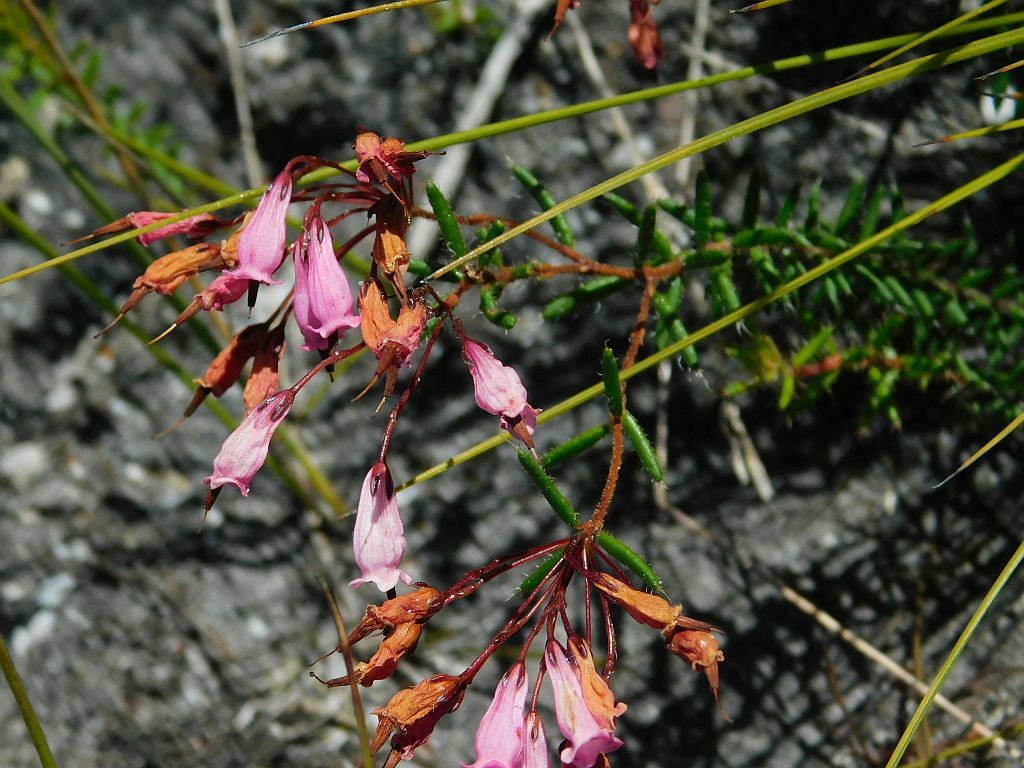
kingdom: Plantae
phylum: Tracheophyta
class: Magnoliopsida
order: Ericales
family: Ericaceae
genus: Erica
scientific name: Erica embothriifolia
